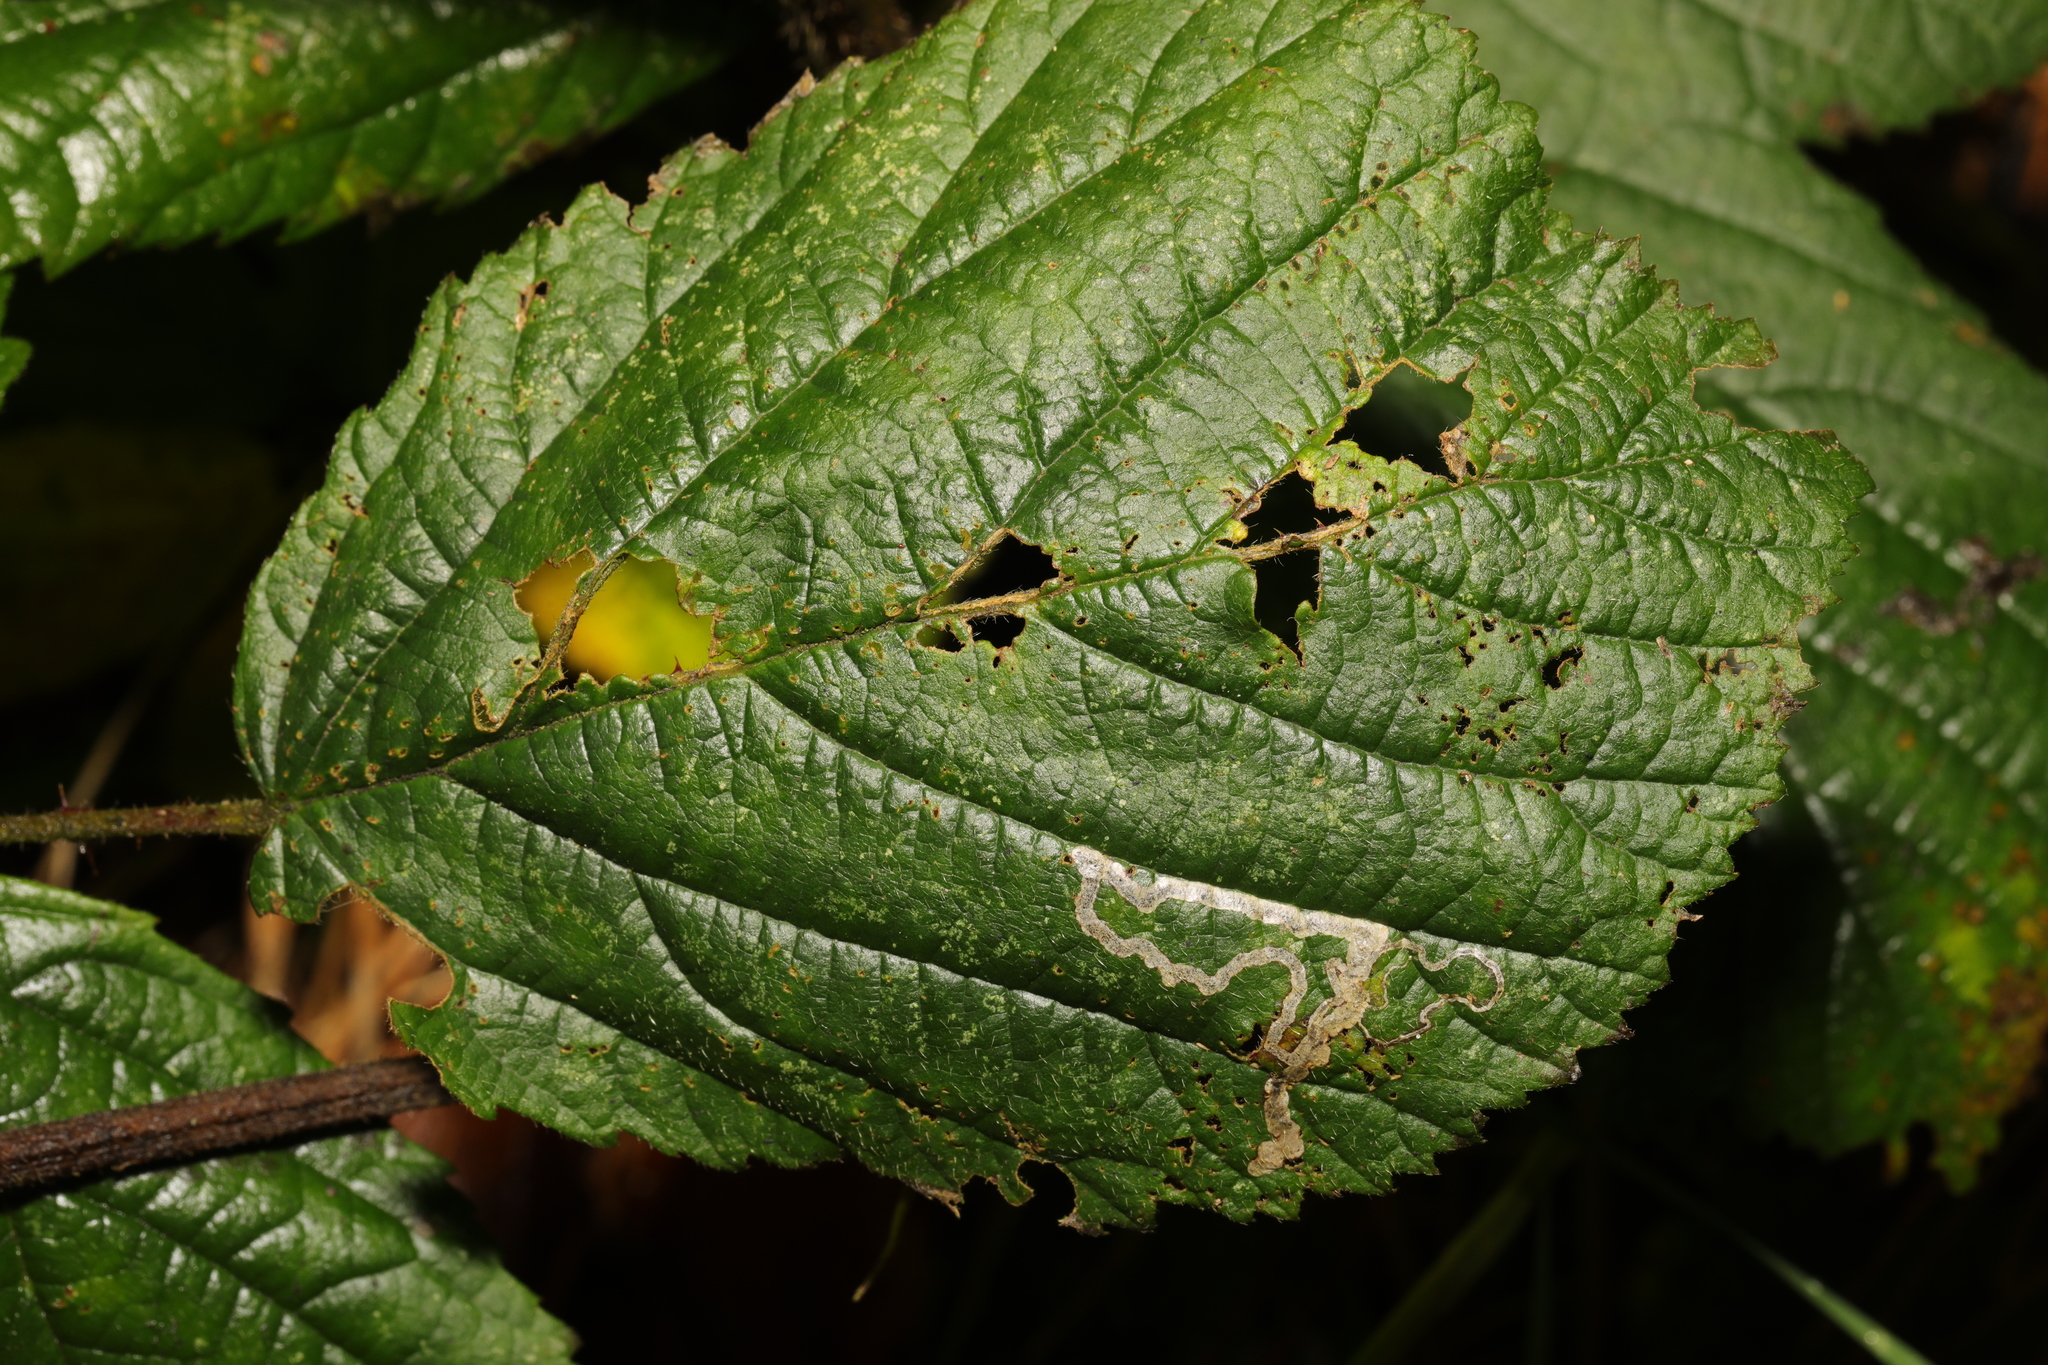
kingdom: Animalia
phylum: Arthropoda
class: Insecta
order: Lepidoptera
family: Nepticulidae
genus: Stigmella
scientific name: Stigmella aurella
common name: Golden pigmy
